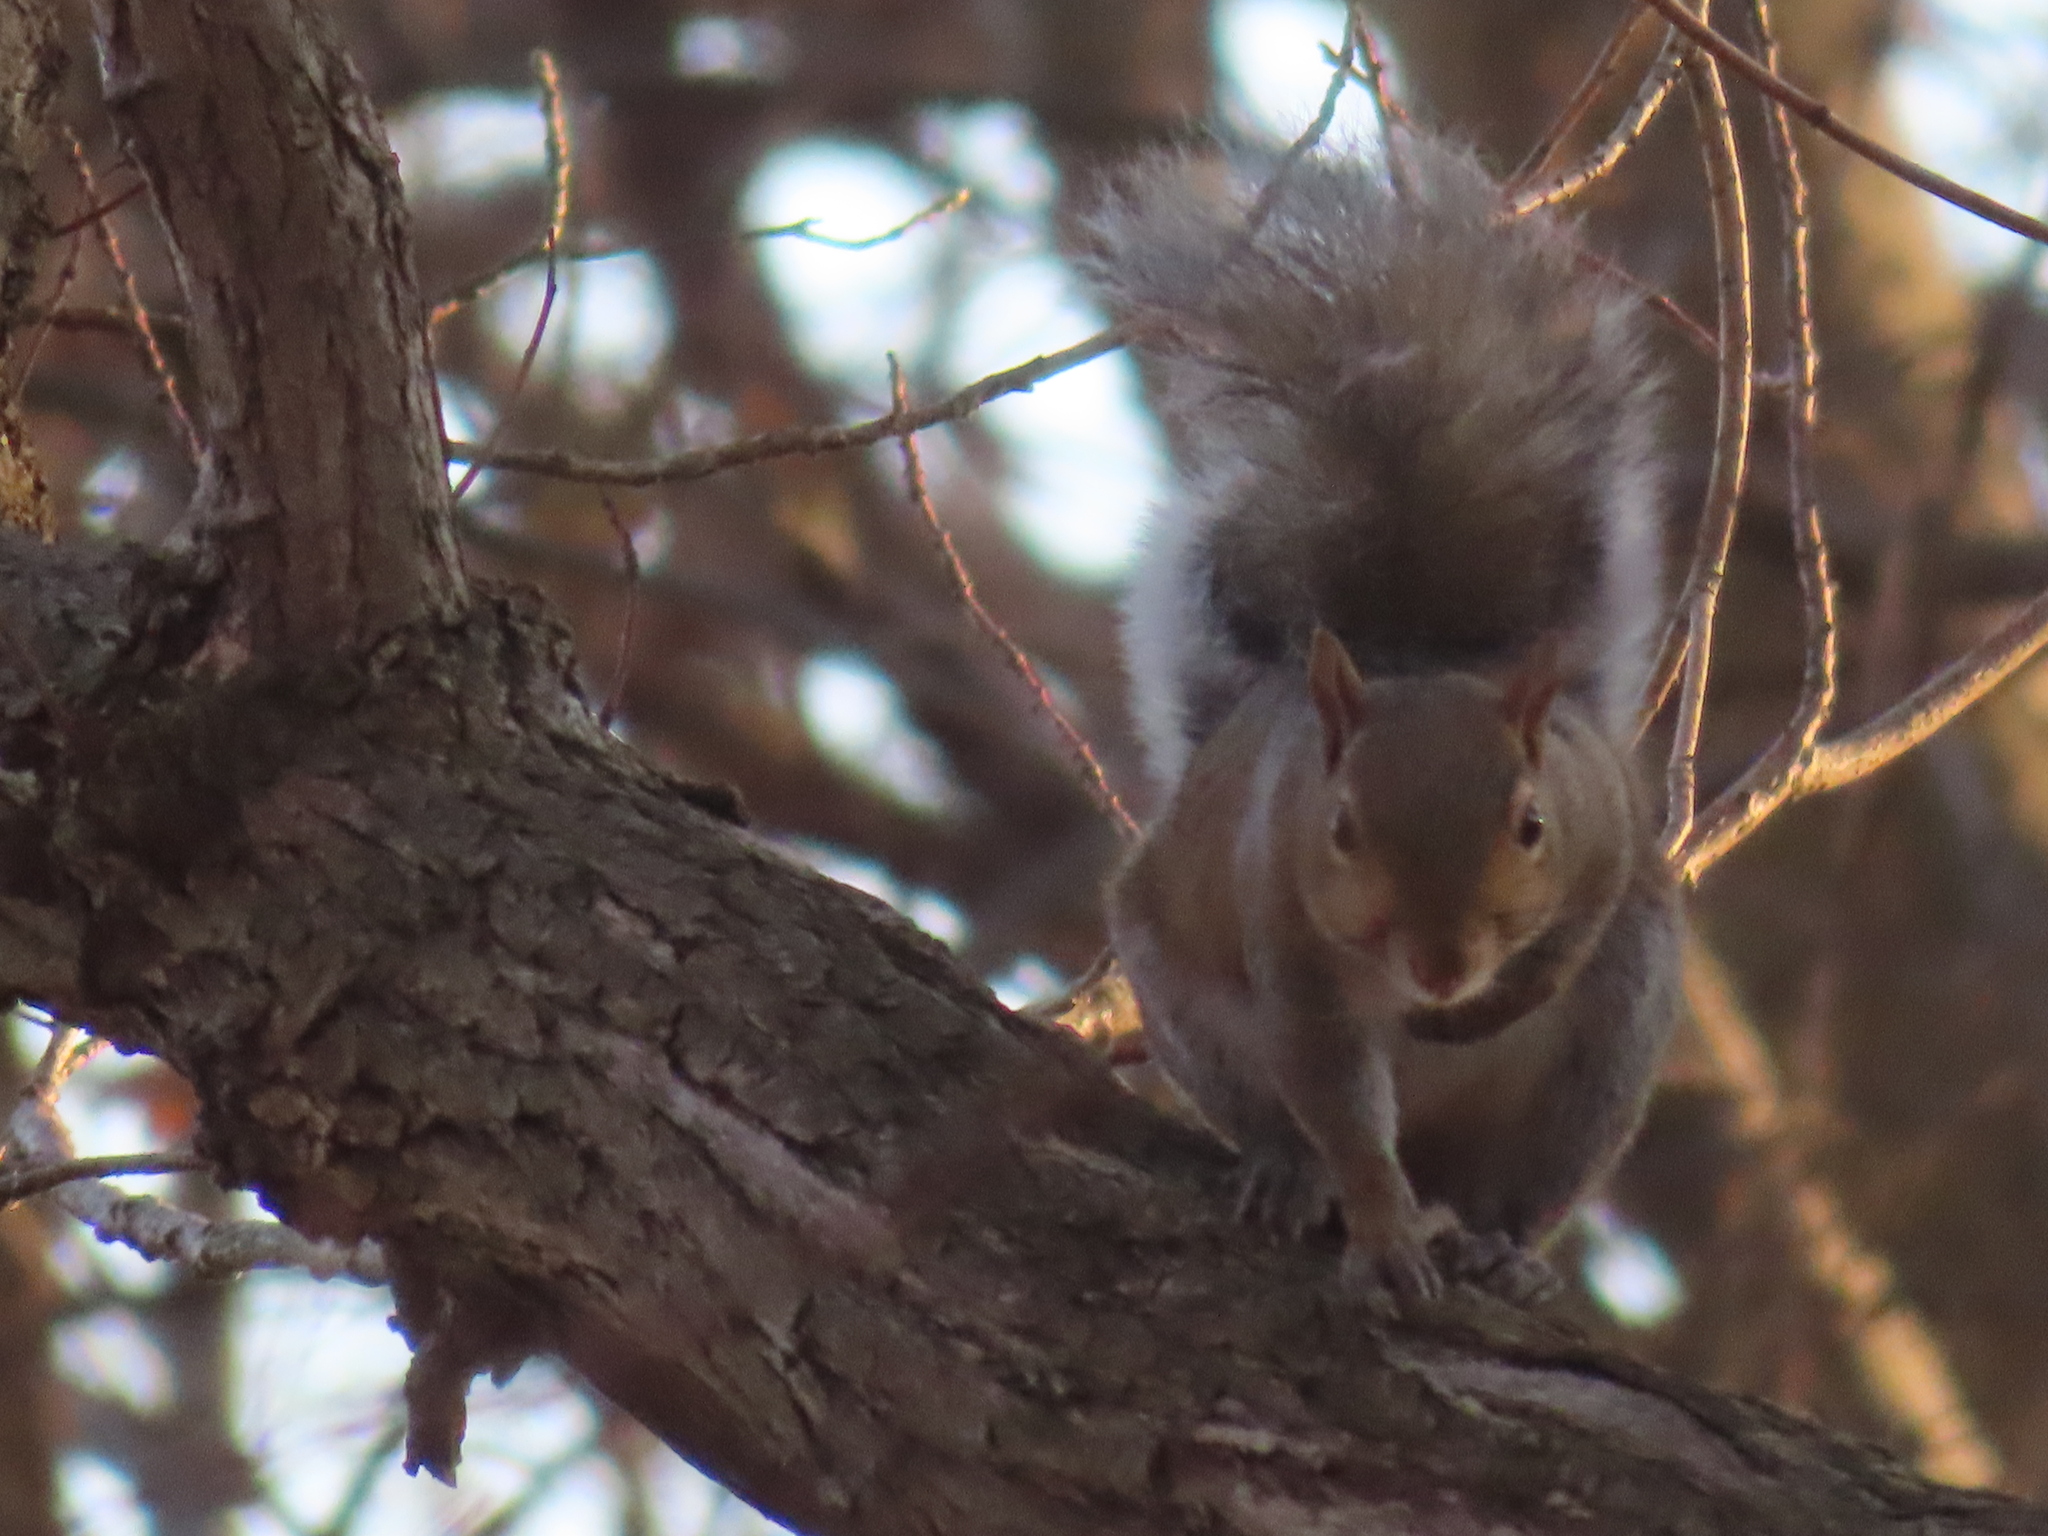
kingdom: Animalia
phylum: Chordata
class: Mammalia
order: Rodentia
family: Sciuridae
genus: Sciurus
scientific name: Sciurus carolinensis
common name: Eastern gray squirrel
